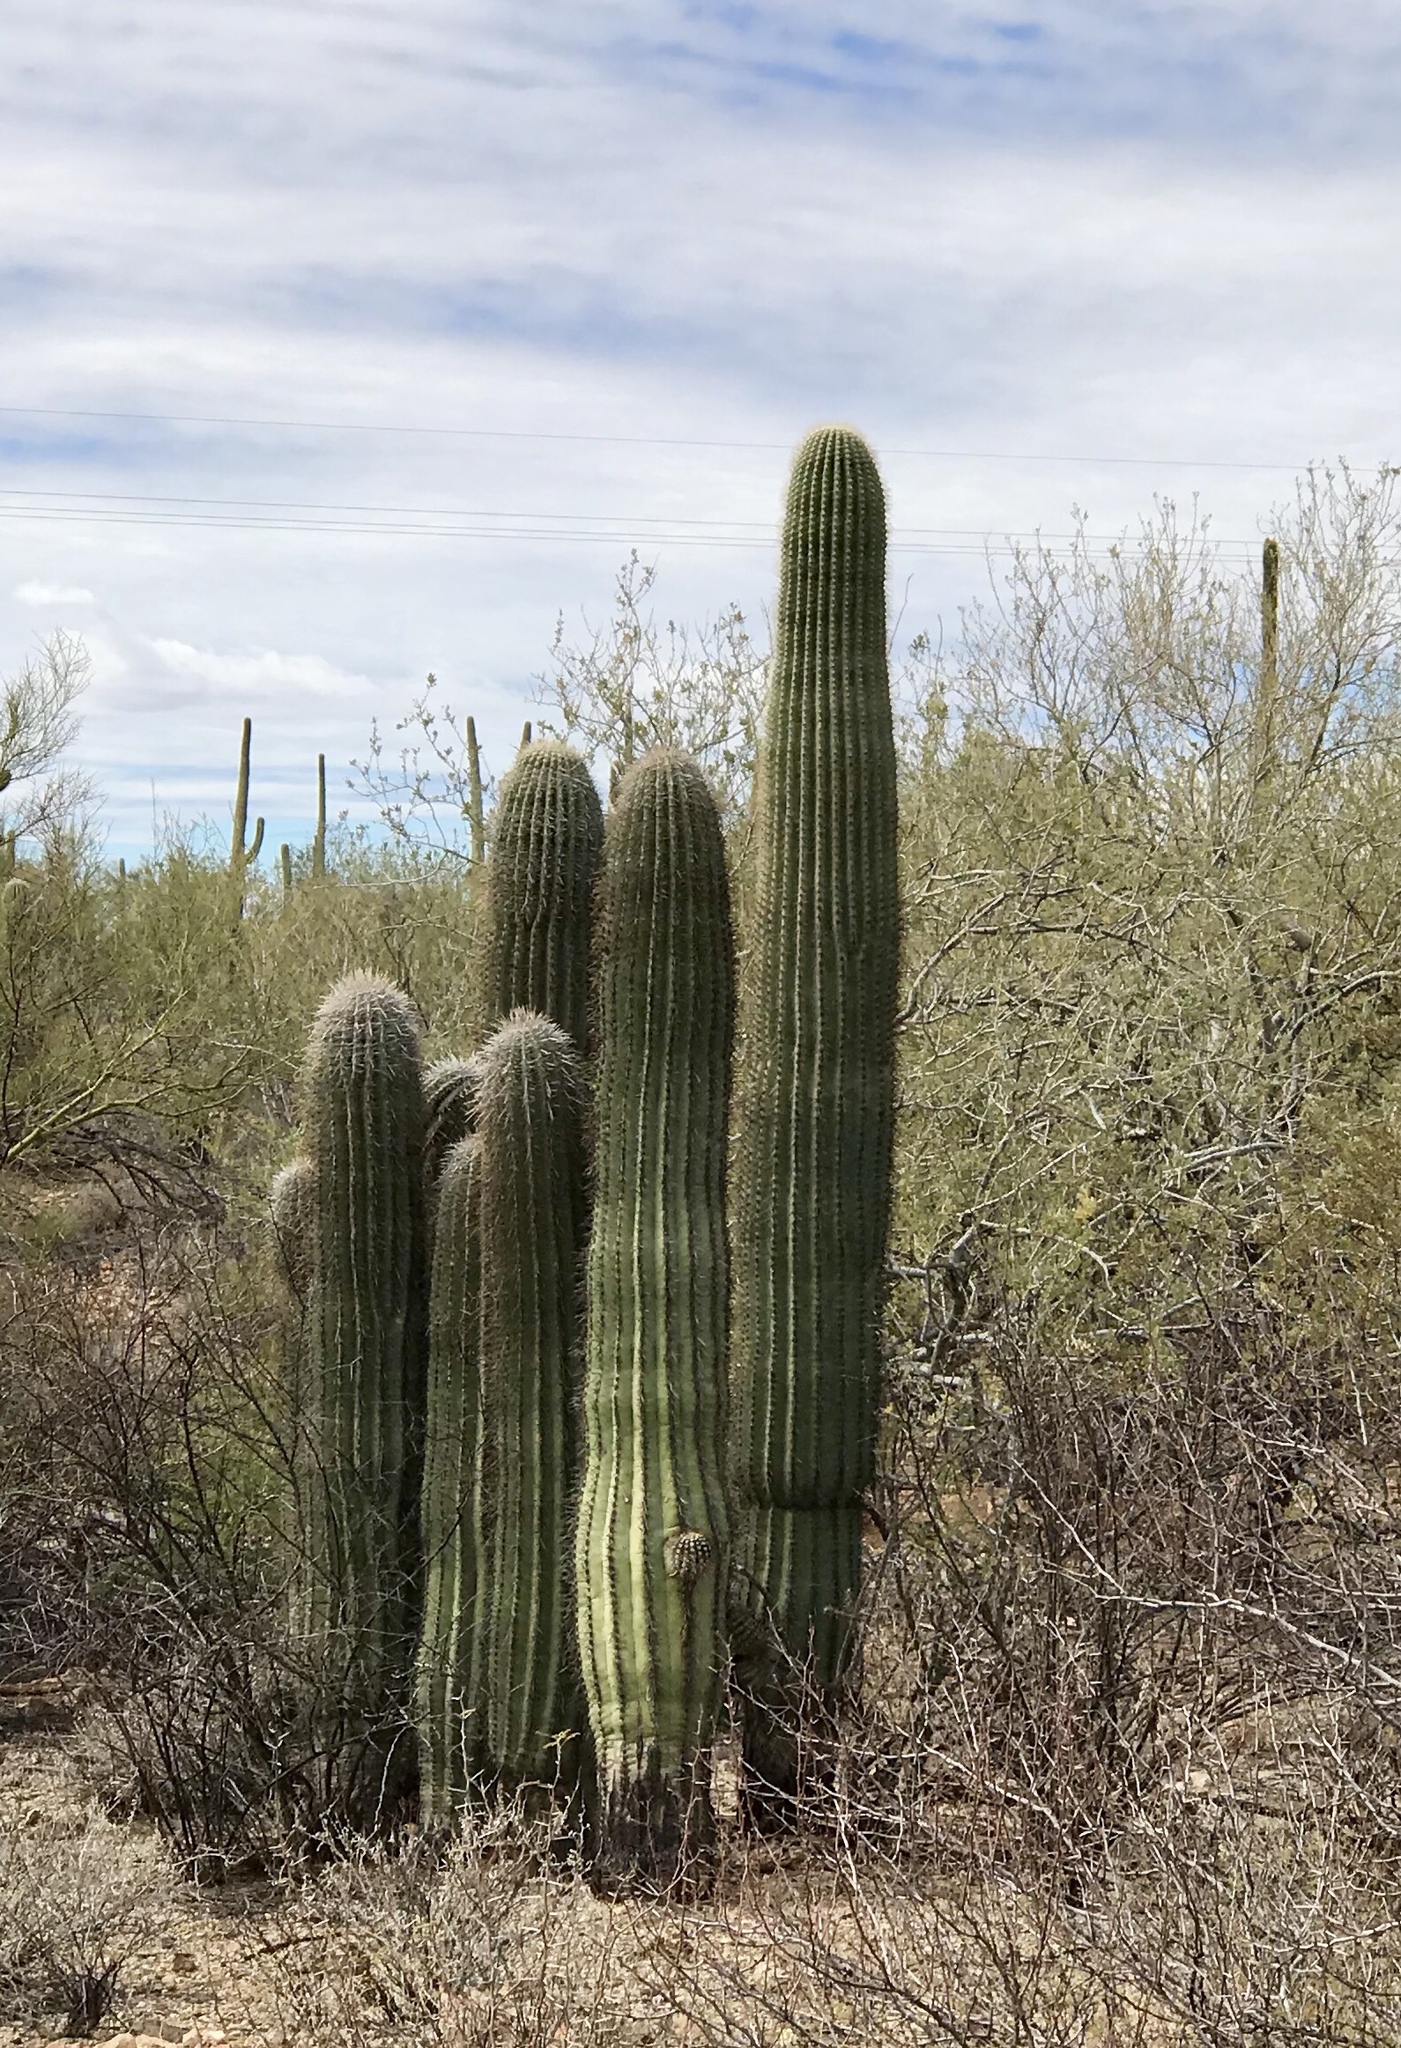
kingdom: Plantae
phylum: Tracheophyta
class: Magnoliopsida
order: Caryophyllales
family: Cactaceae
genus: Carnegiea
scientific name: Carnegiea gigantea
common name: Saguaro
